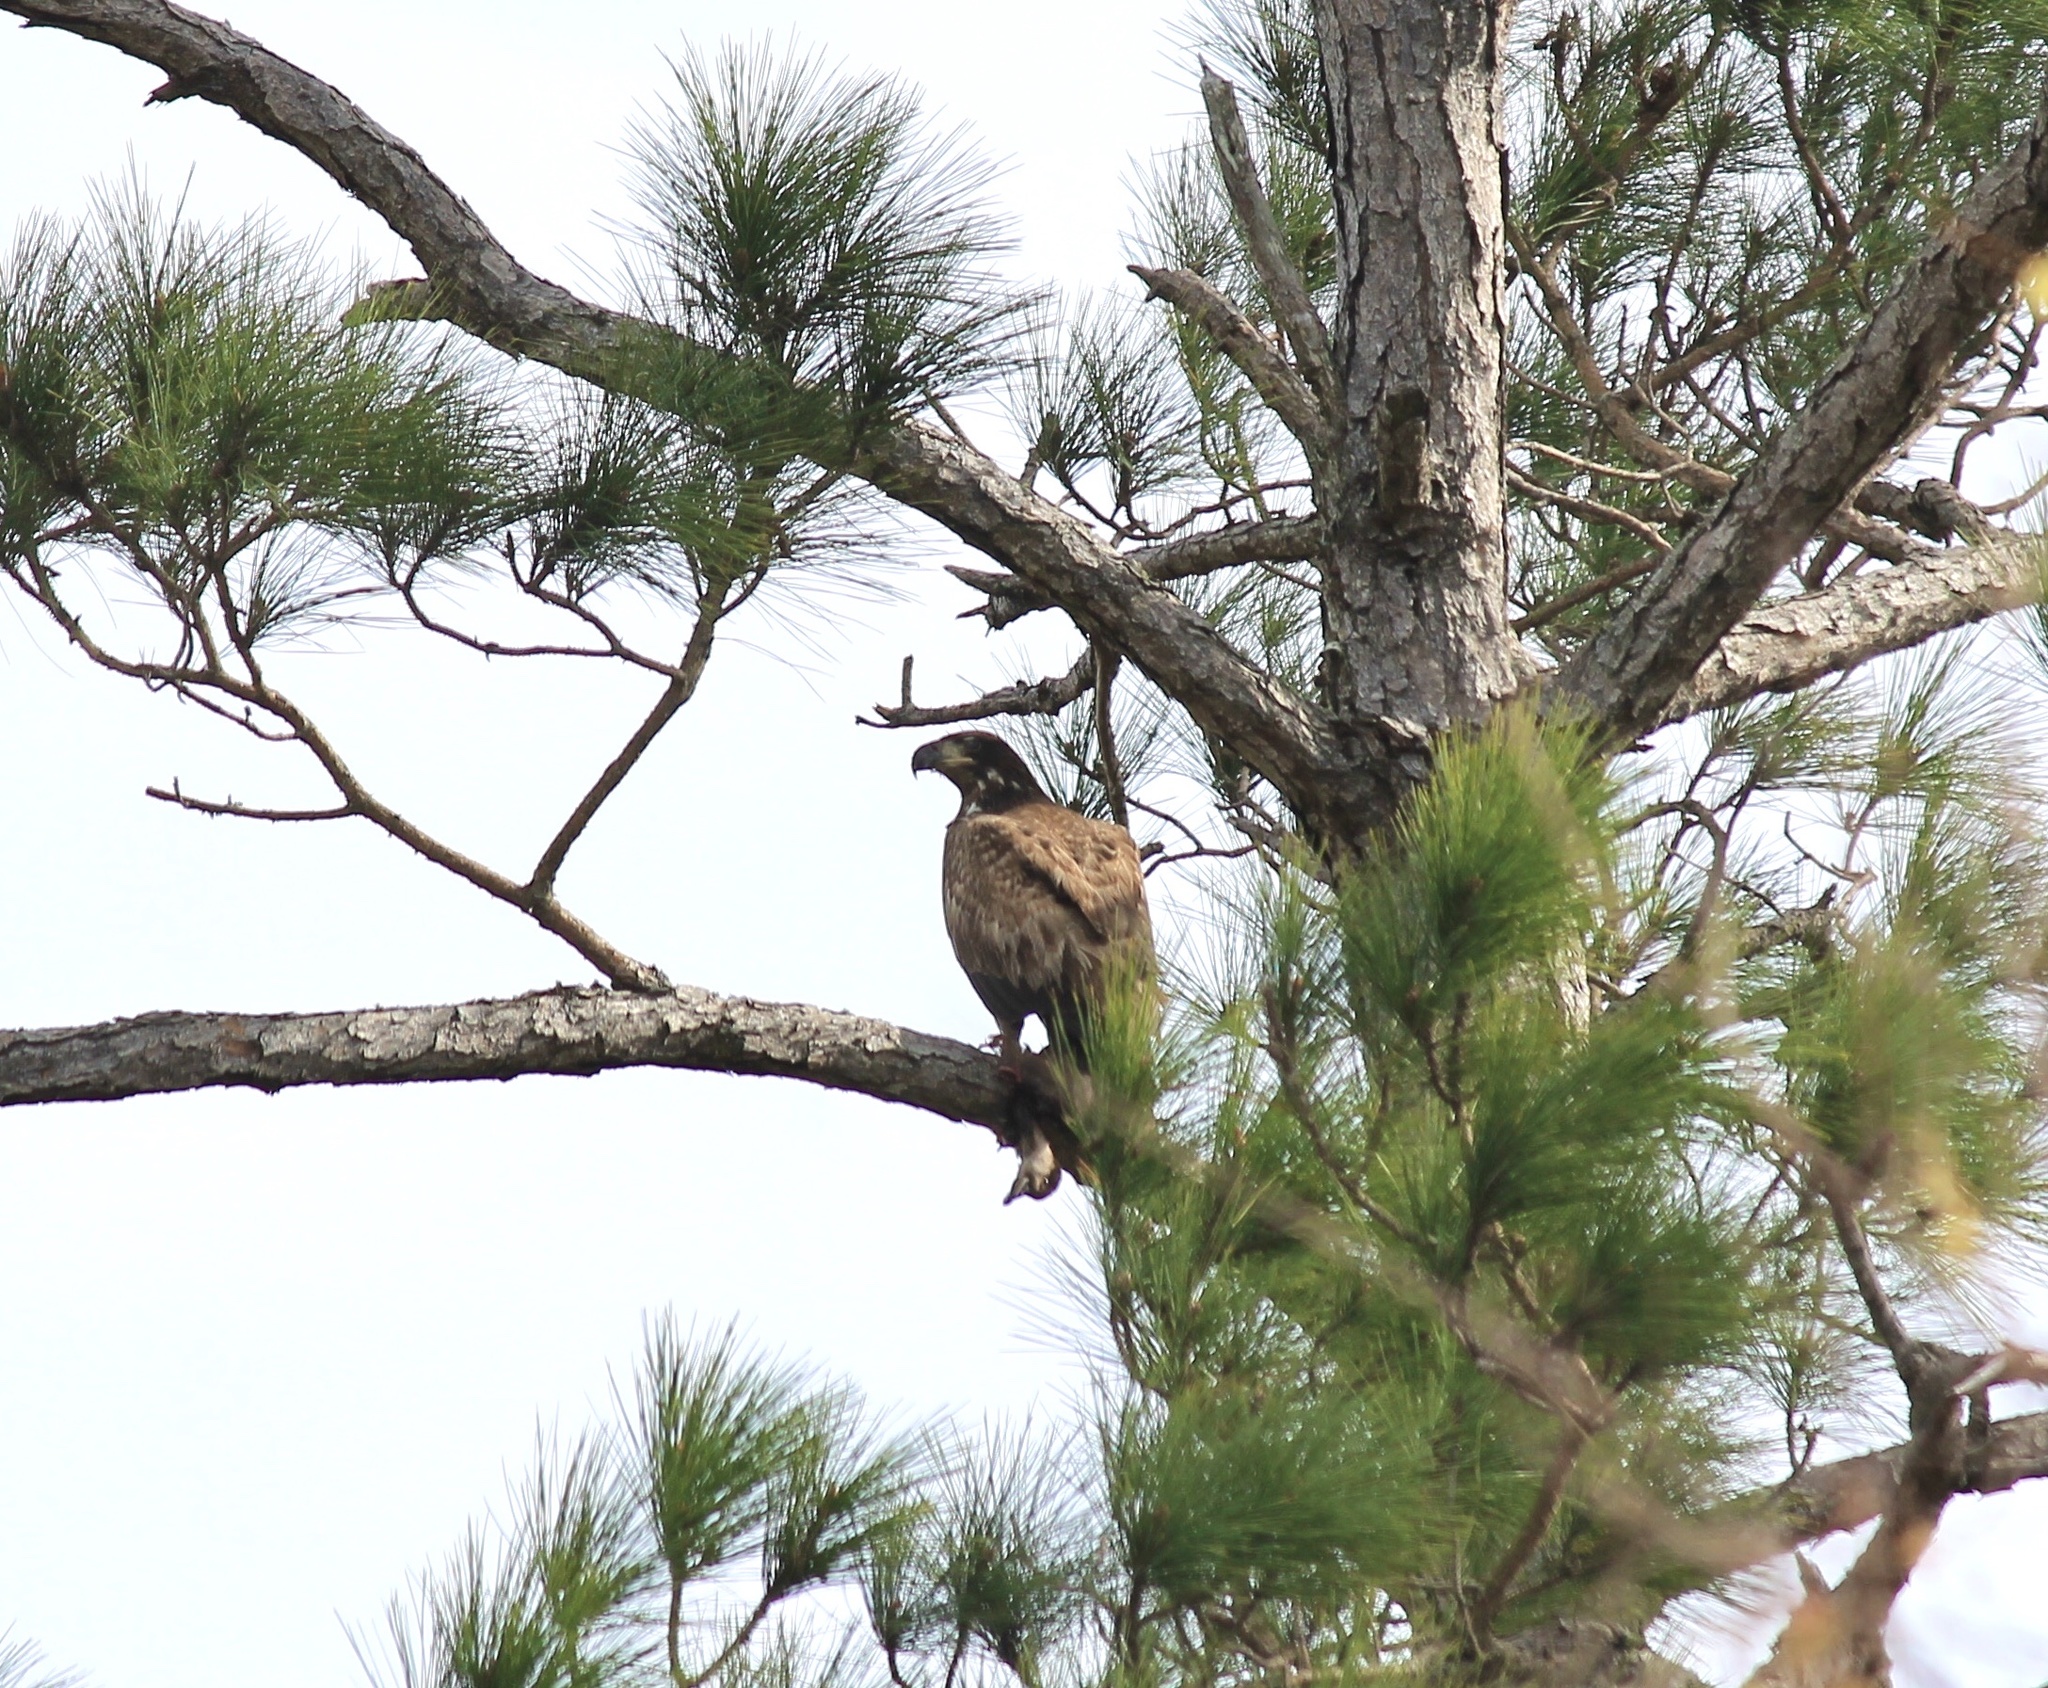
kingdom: Animalia
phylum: Chordata
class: Aves
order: Accipitriformes
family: Accipitridae
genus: Haliaeetus
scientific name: Haliaeetus leucocephalus
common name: Bald eagle
